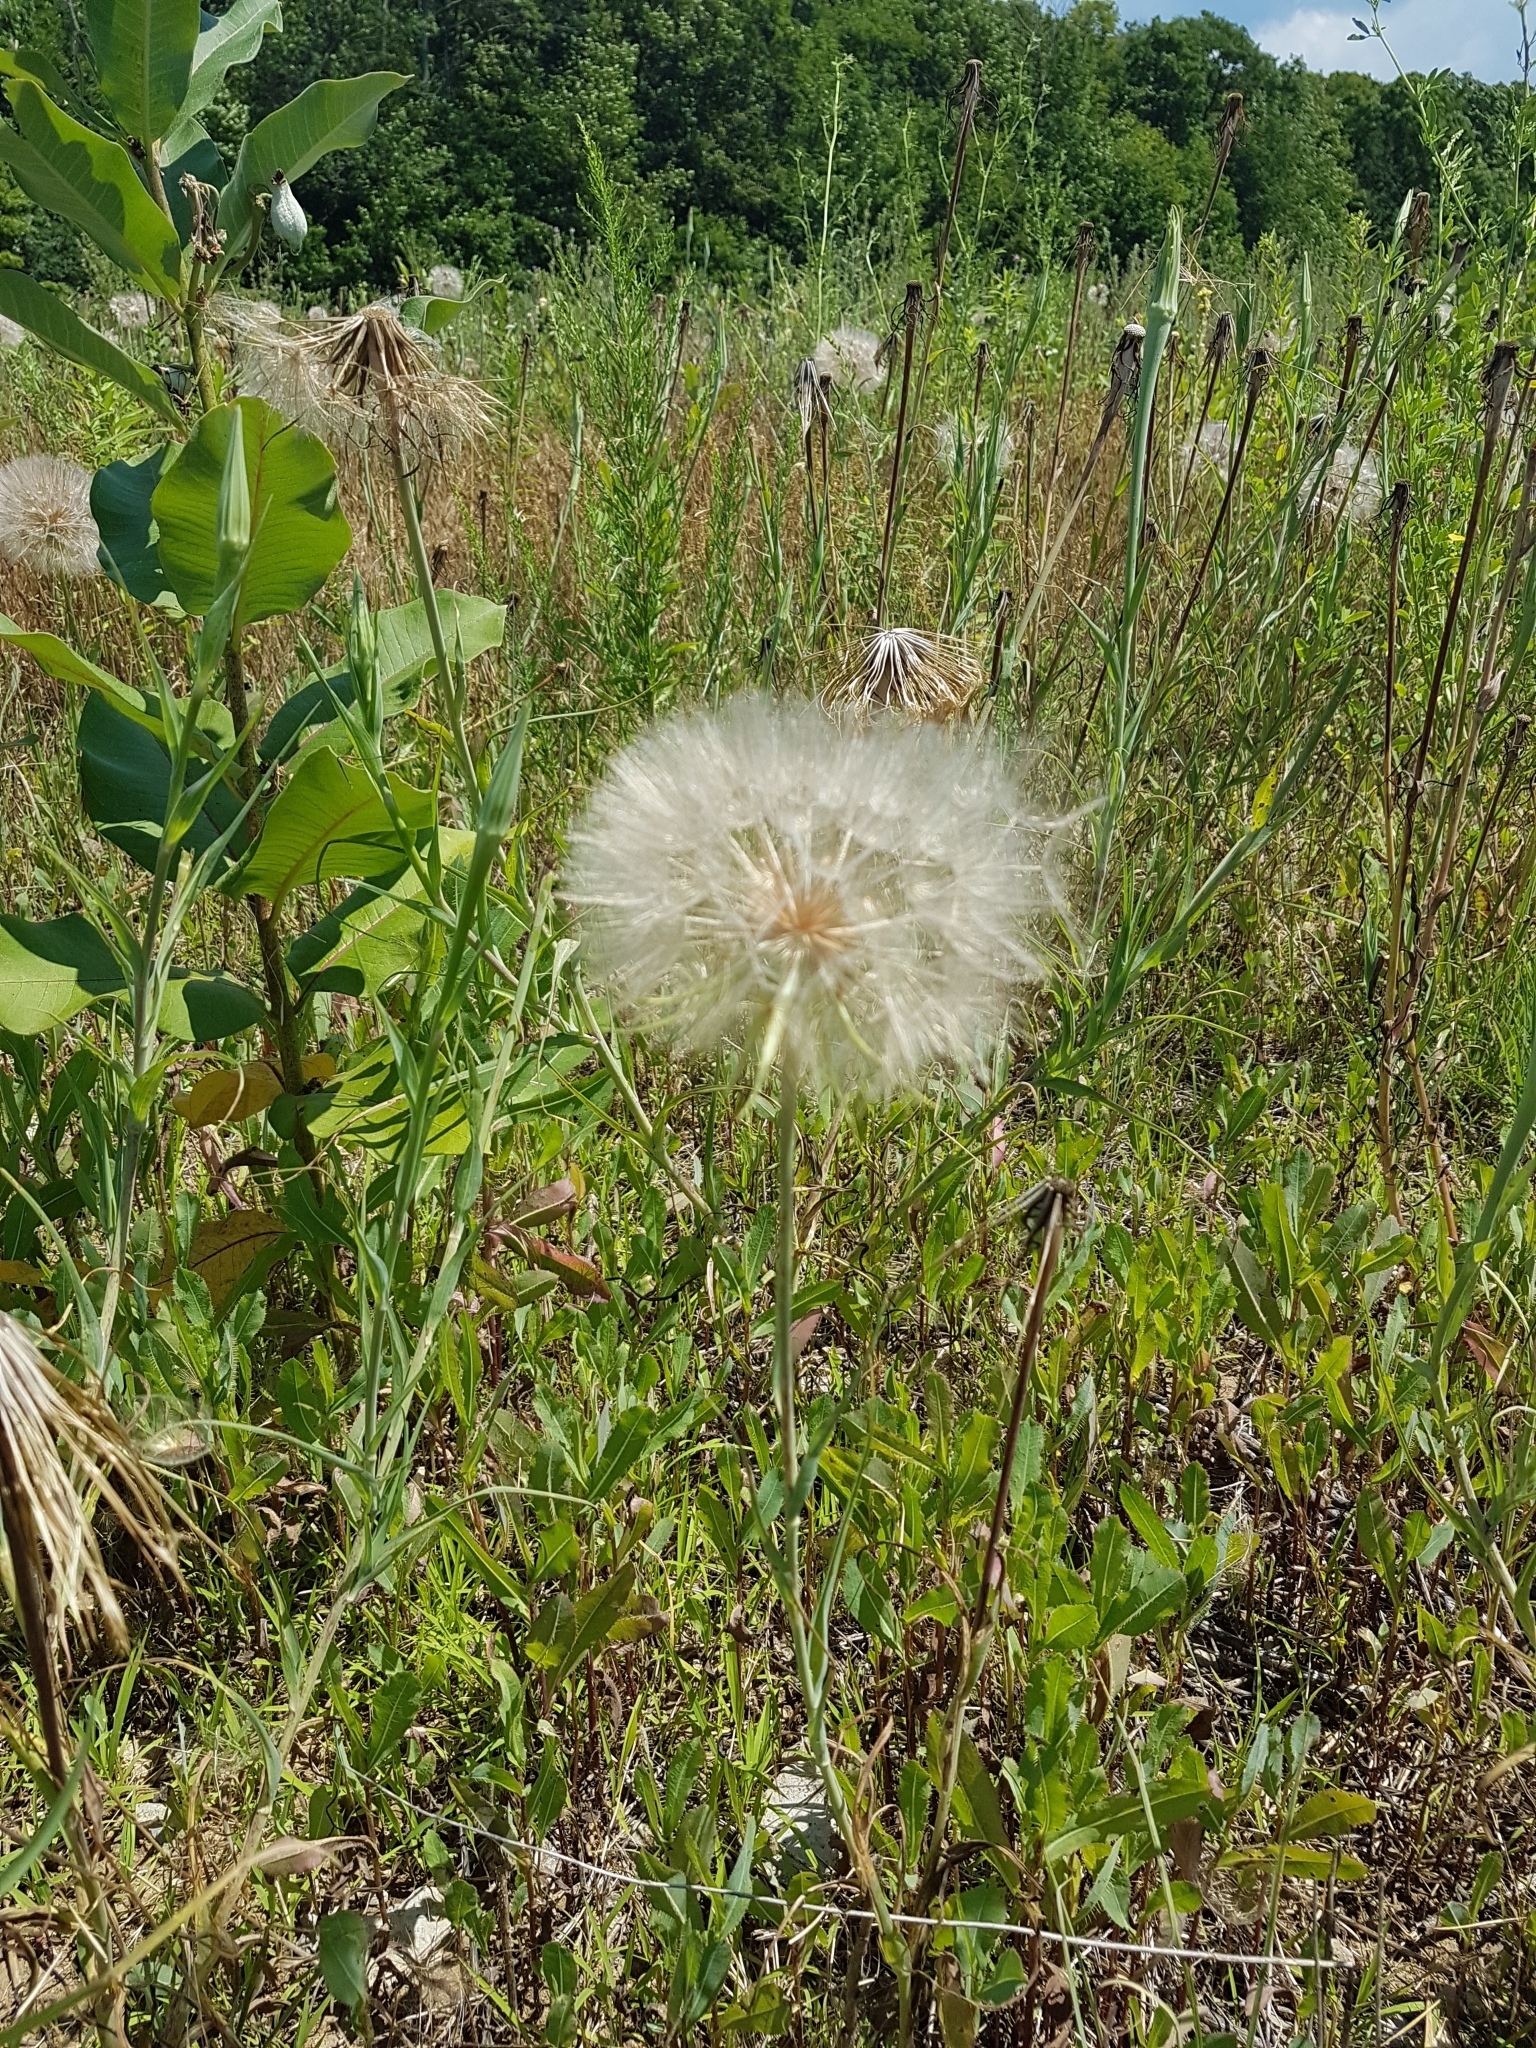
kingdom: Plantae
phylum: Tracheophyta
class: Magnoliopsida
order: Asterales
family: Asteraceae
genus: Tragopogon
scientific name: Tragopogon dubius
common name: Yellow salsify
